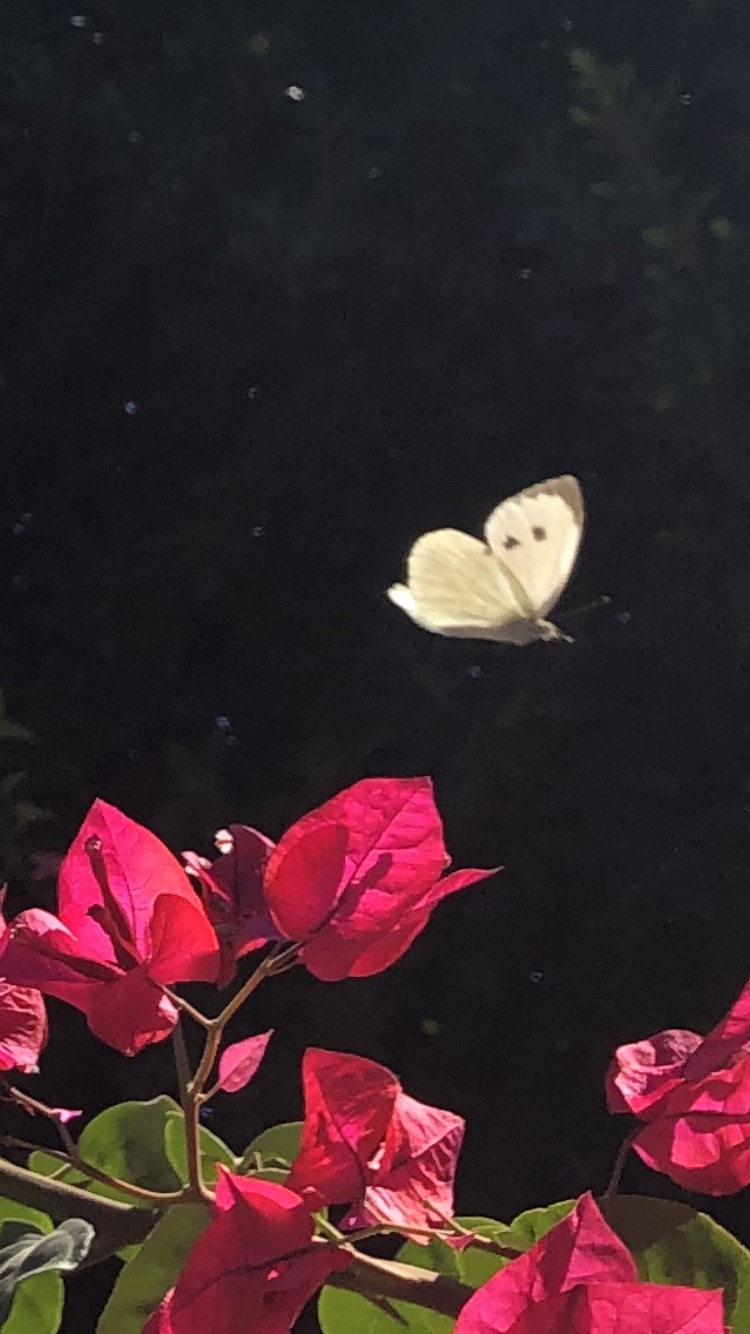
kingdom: Animalia
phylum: Arthropoda
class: Insecta
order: Lepidoptera
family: Pieridae
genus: Pieris
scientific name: Pieris brassicae
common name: Large white
